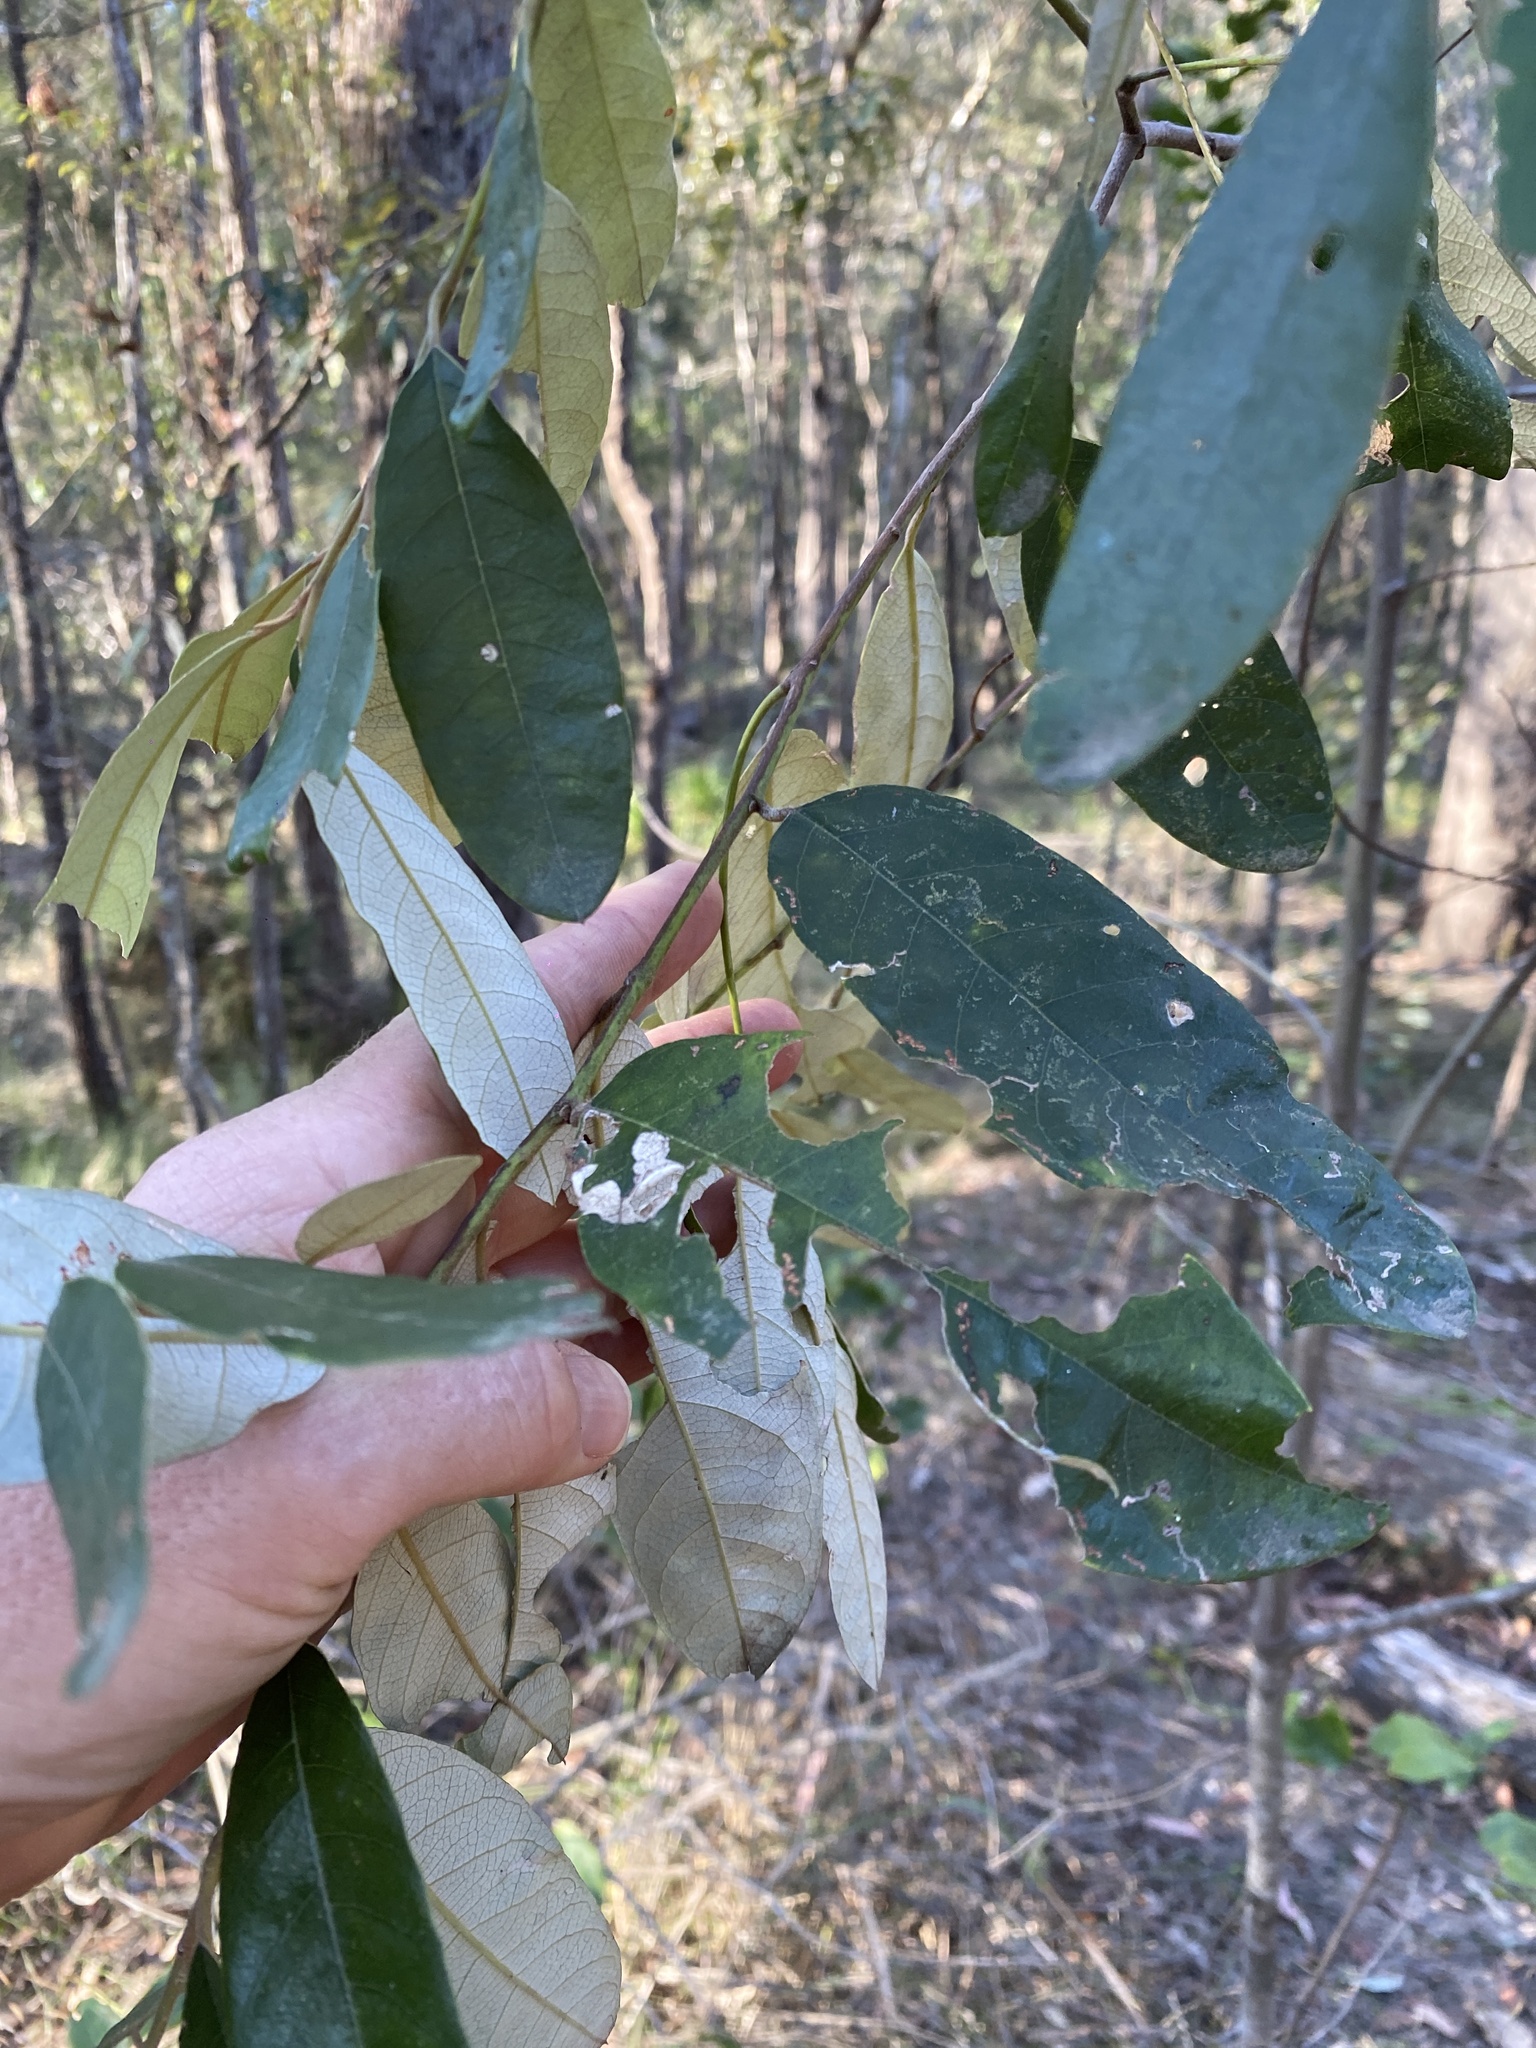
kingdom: Plantae
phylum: Tracheophyta
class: Magnoliopsida
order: Rosales
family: Rhamnaceae
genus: Alphitonia
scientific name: Alphitonia excelsa
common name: Red ash
